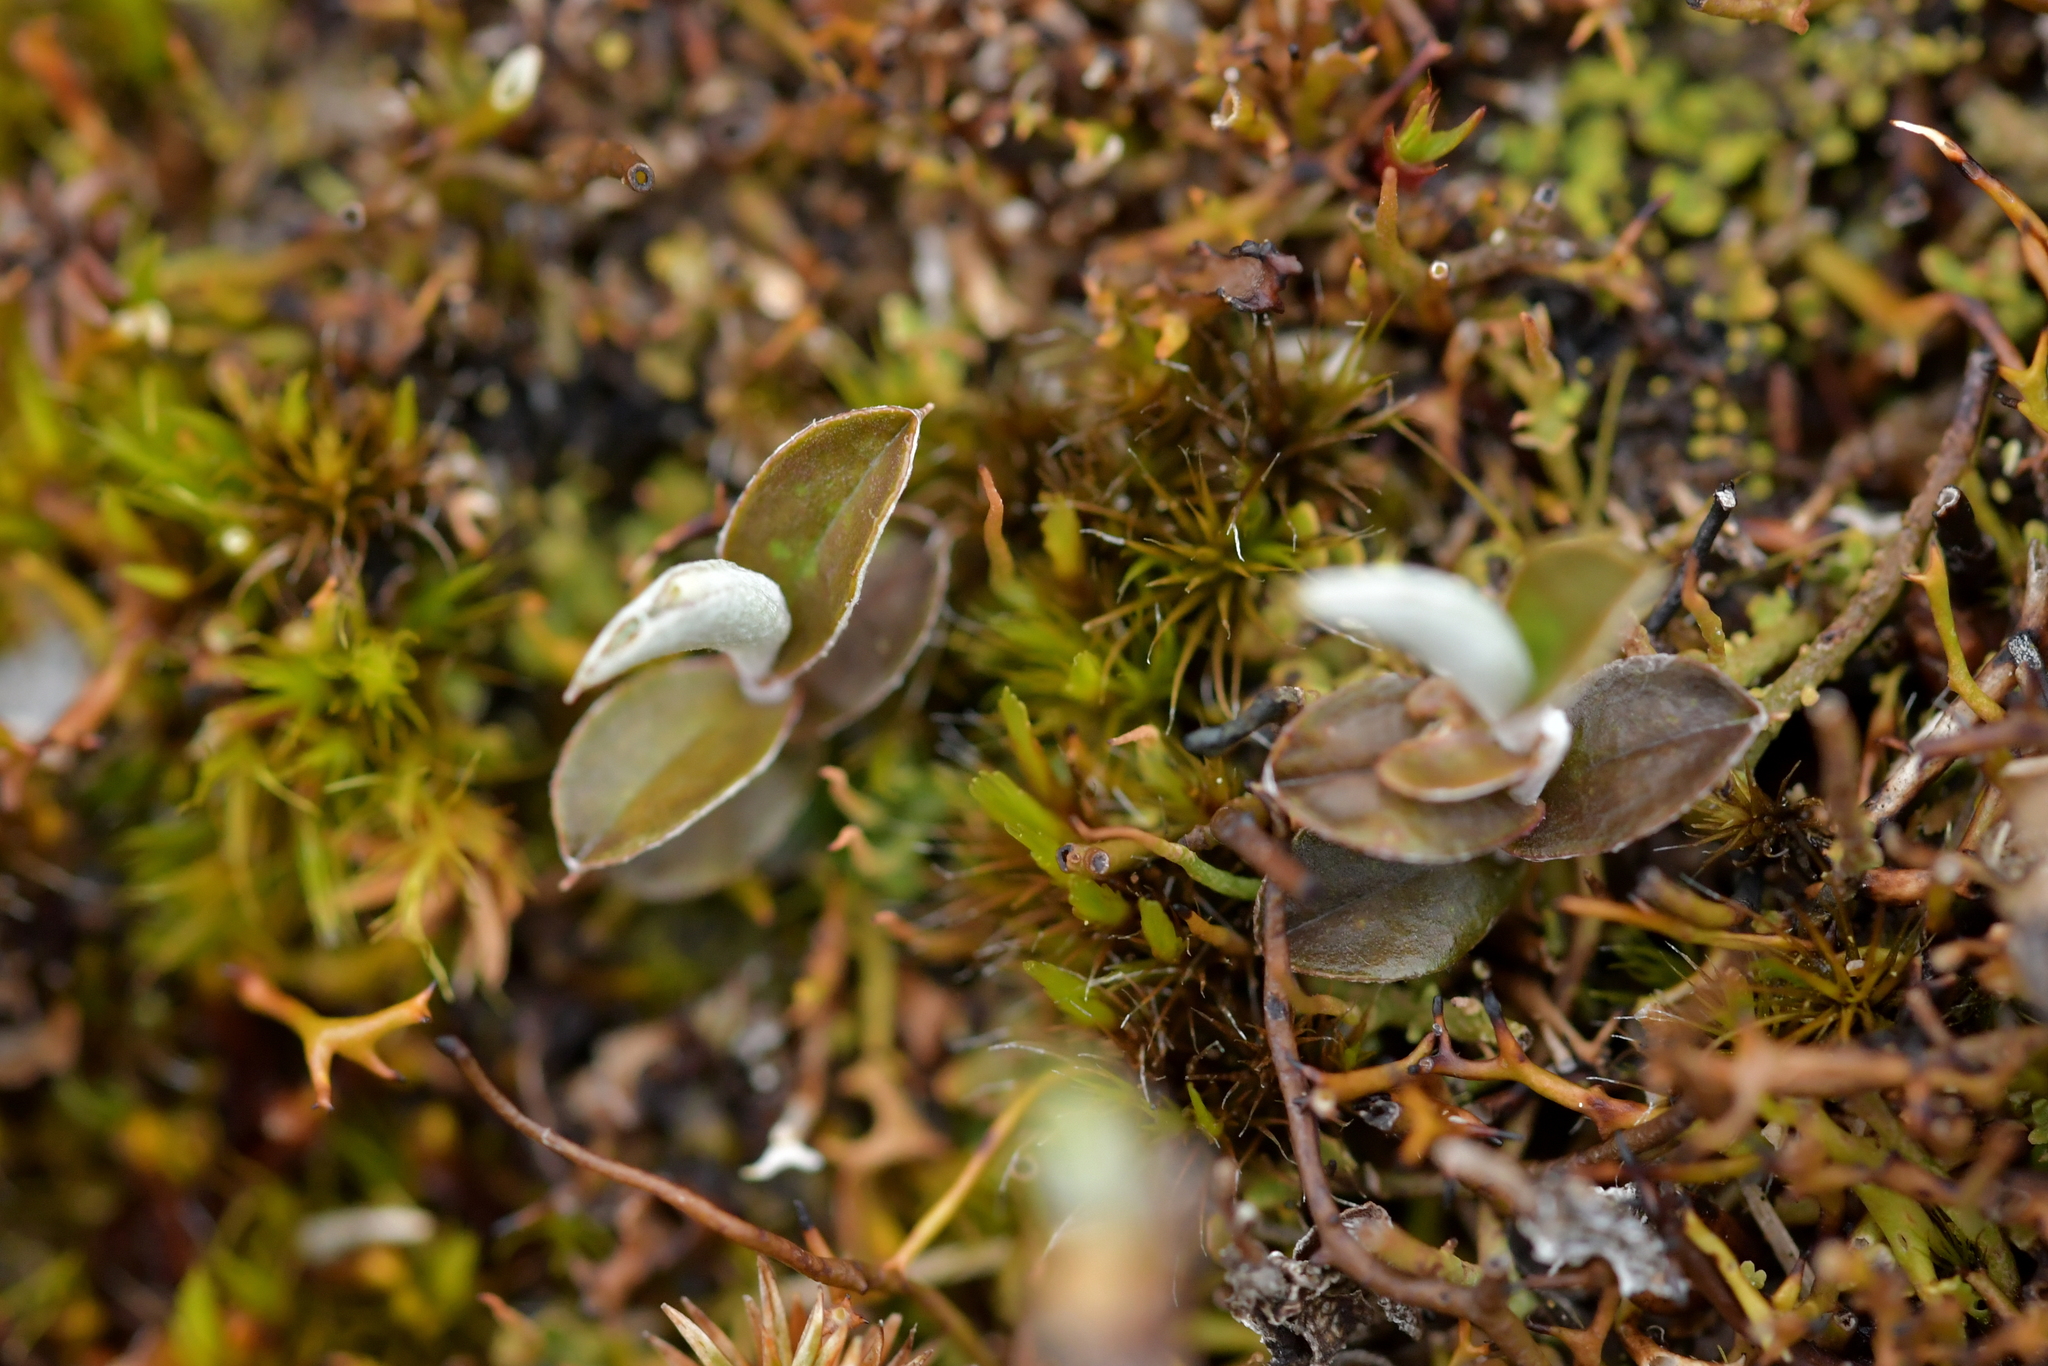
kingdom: Plantae
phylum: Tracheophyta
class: Magnoliopsida
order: Asterales
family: Asteraceae
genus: Helichrysum
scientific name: Helichrysum filicaule
